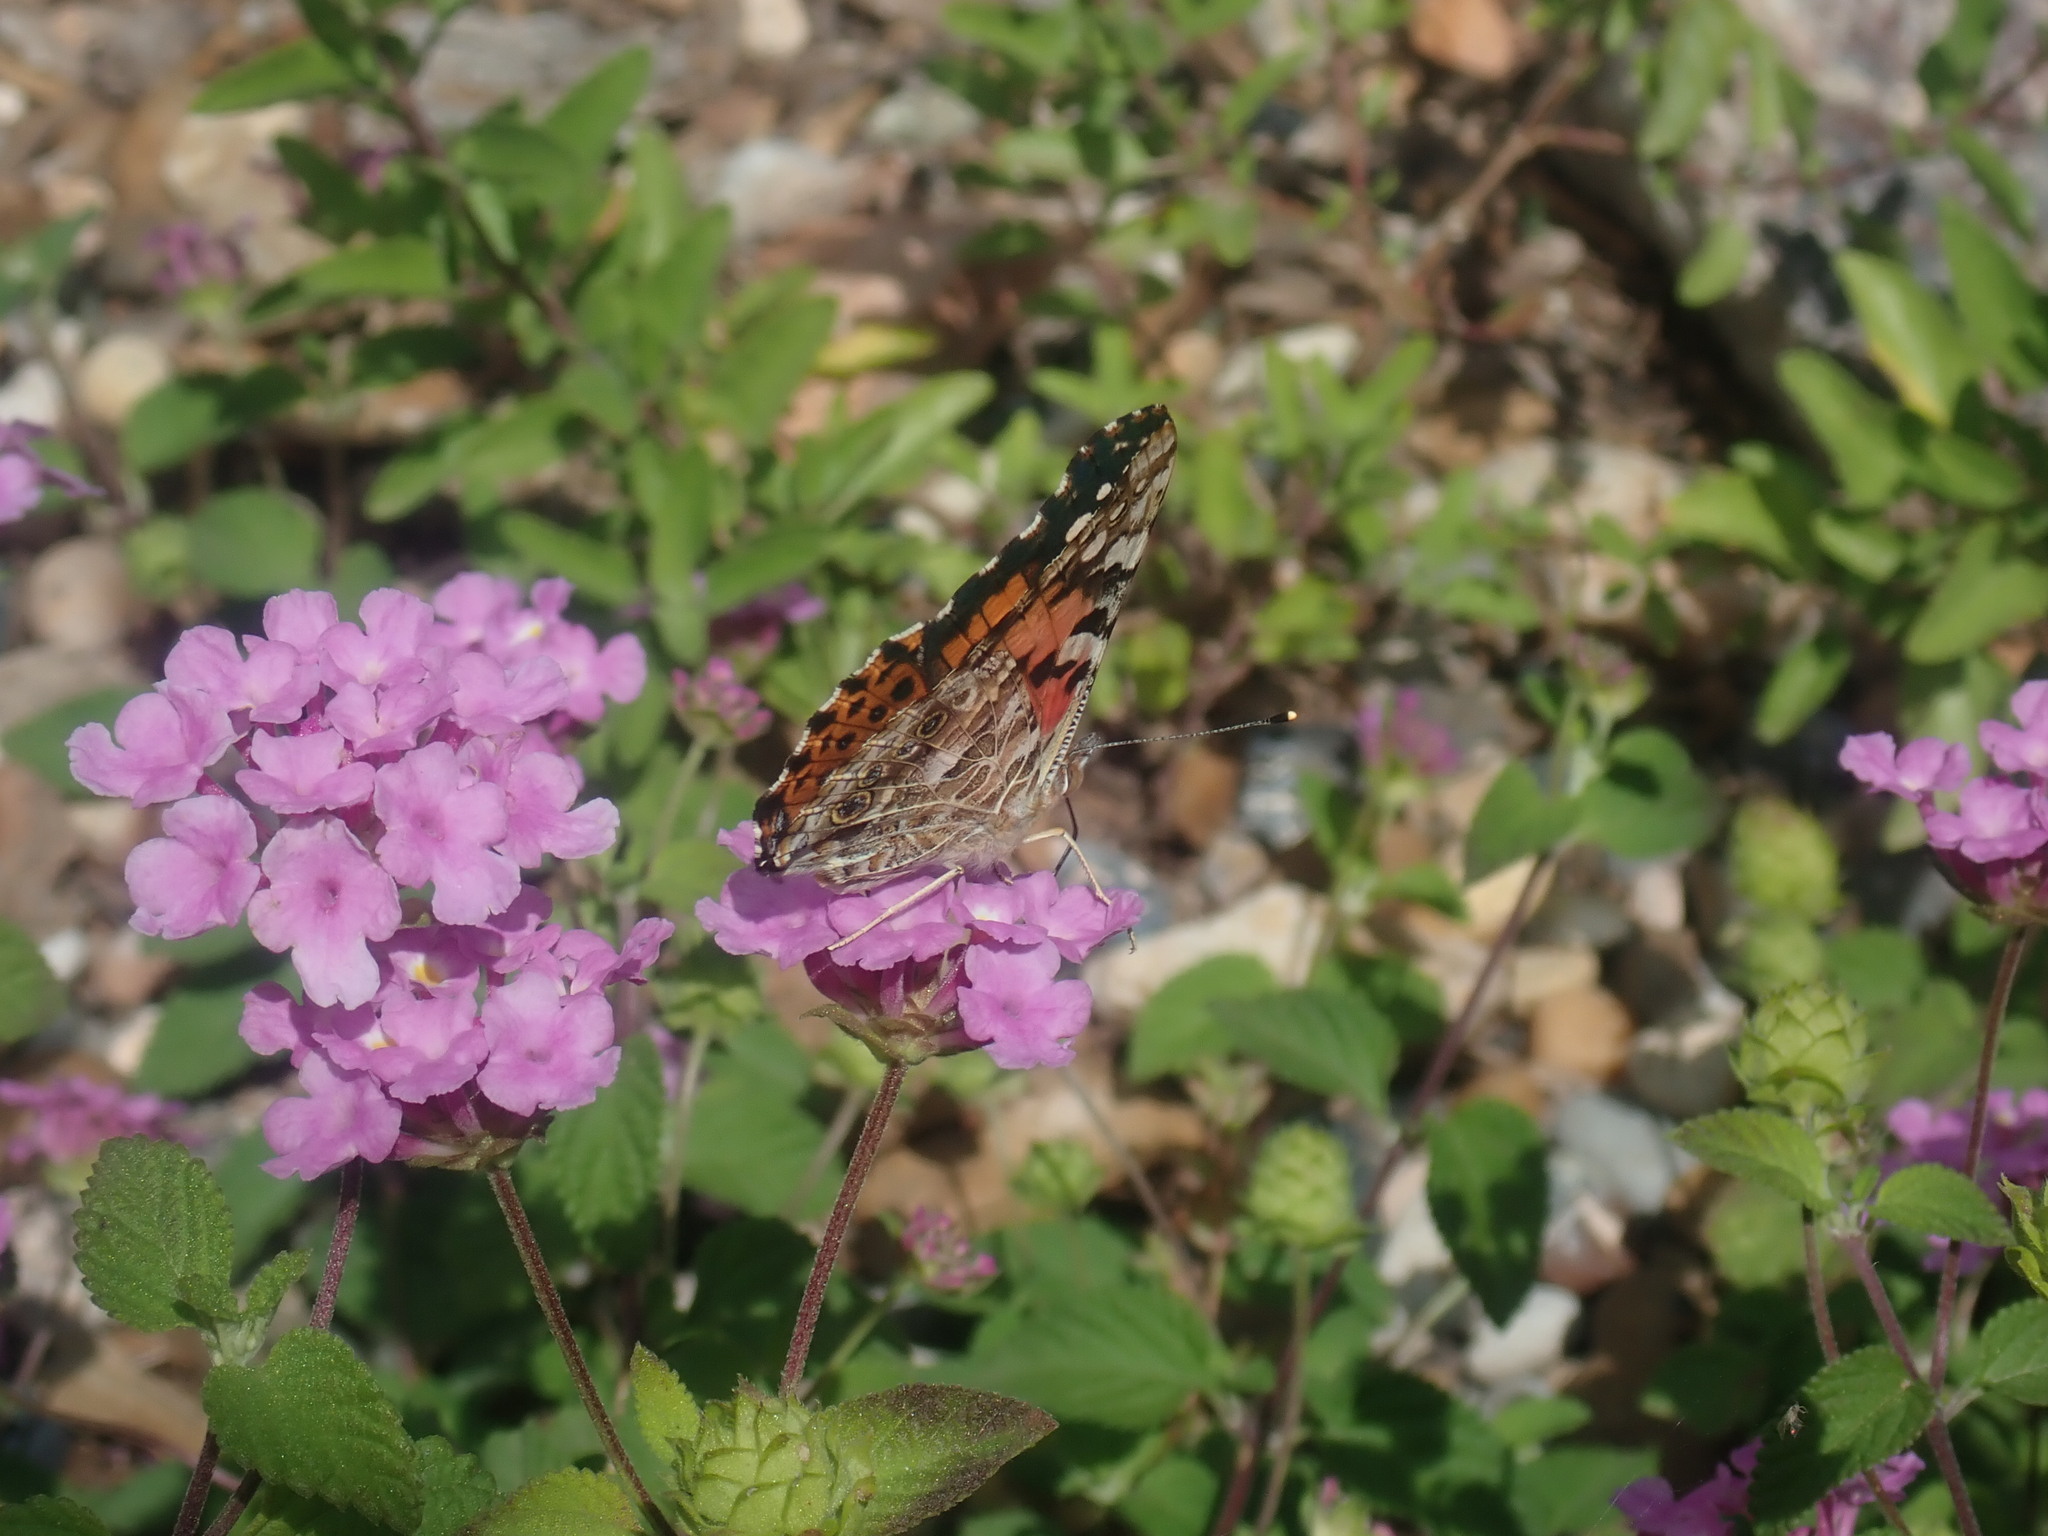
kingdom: Animalia
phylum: Arthropoda
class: Insecta
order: Lepidoptera
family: Nymphalidae
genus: Vanessa
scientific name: Vanessa cardui
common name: Painted lady
